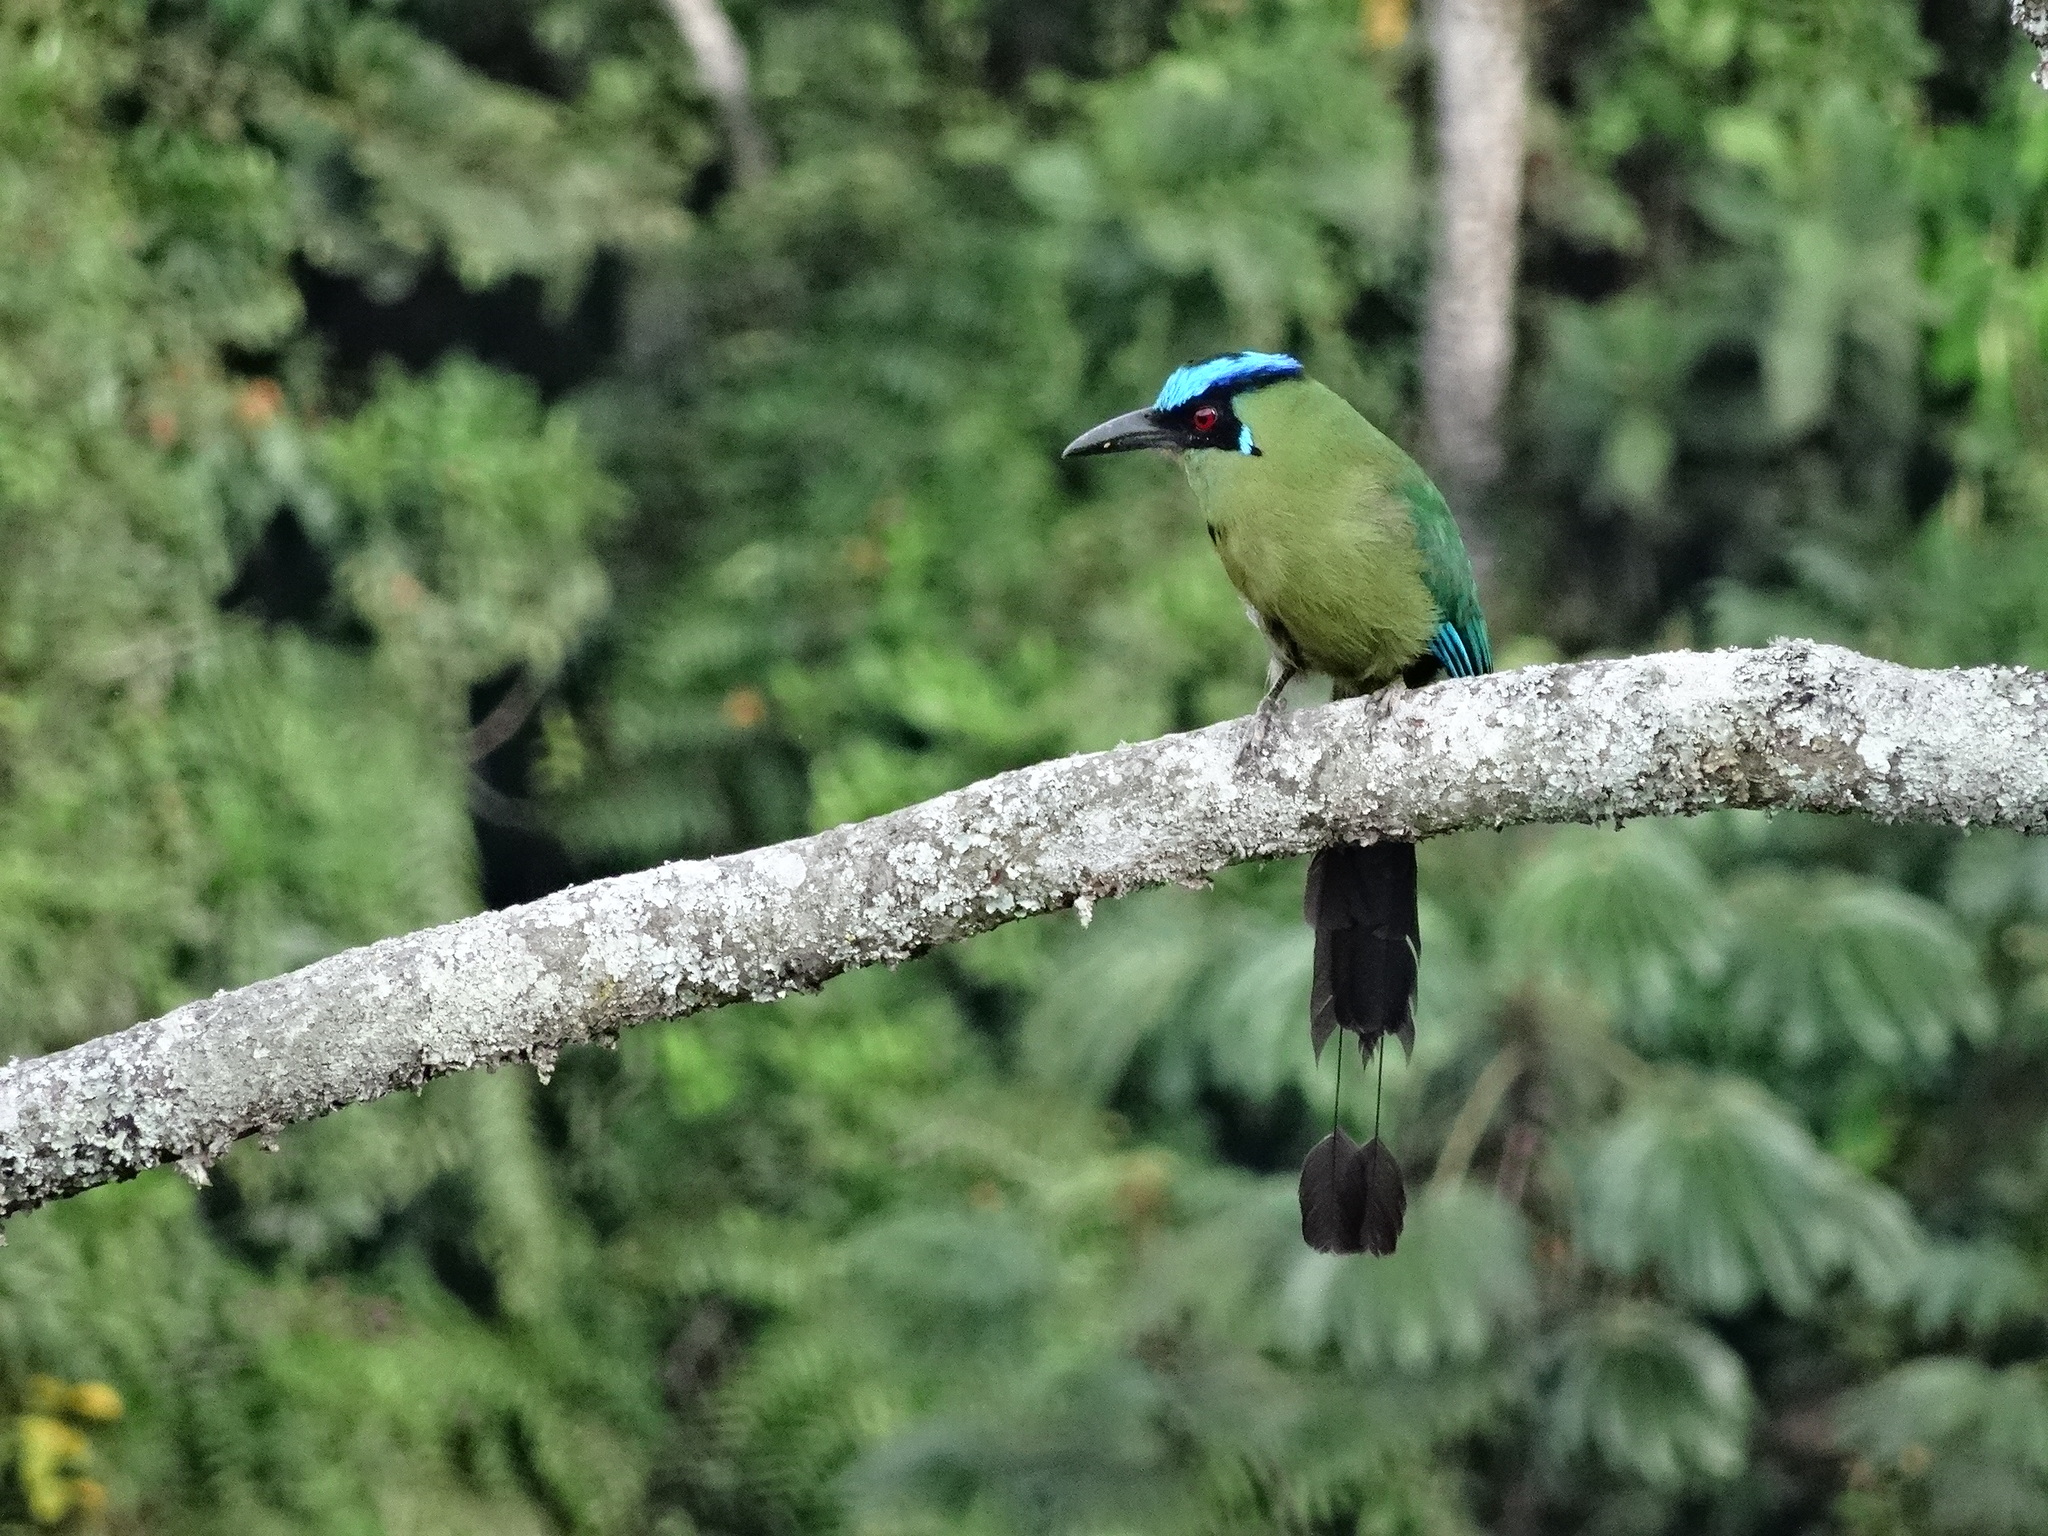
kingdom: Animalia
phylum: Chordata
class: Aves
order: Coraciiformes
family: Momotidae
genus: Momotus
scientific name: Momotus aequatorialis
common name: Andean motmot
